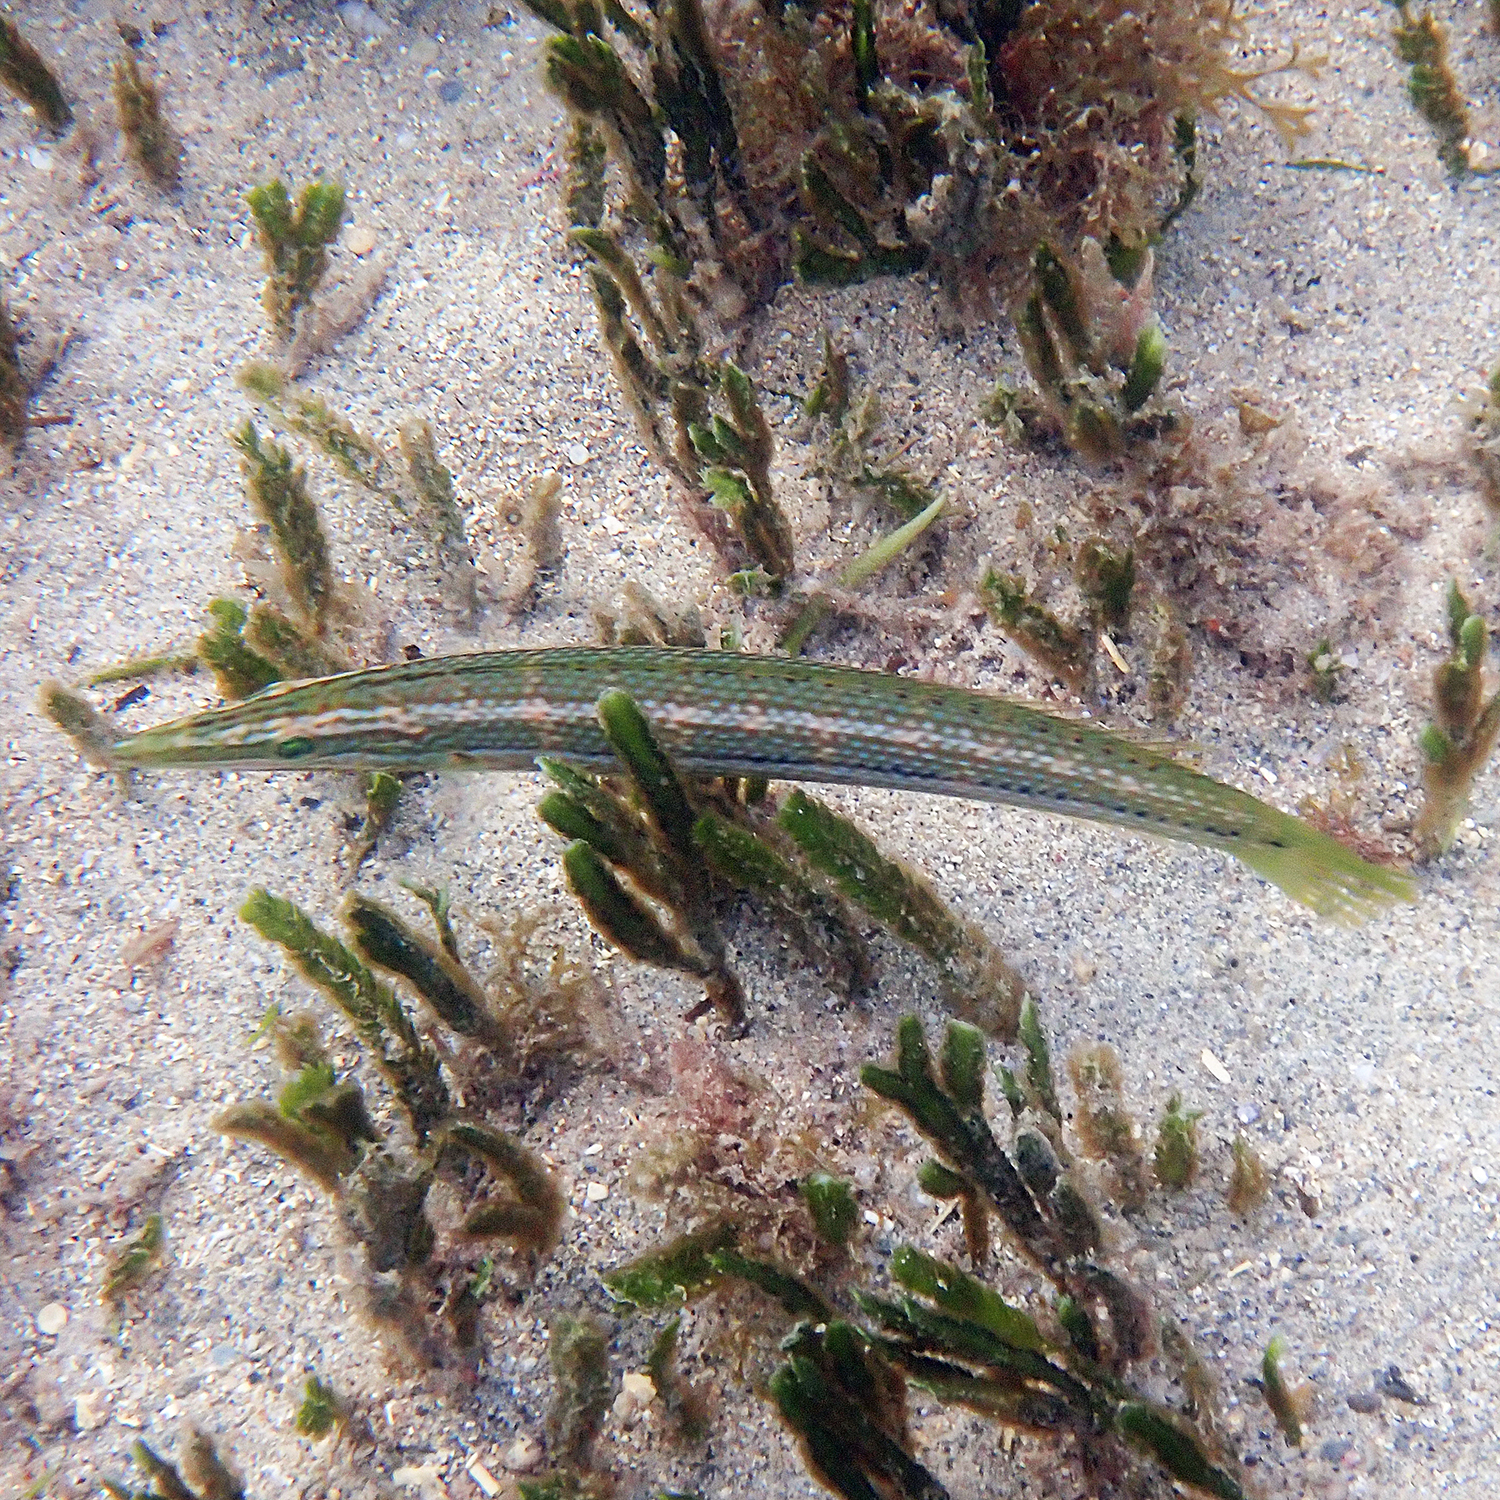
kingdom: Animalia
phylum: Chordata
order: Perciformes
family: Labridae
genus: Cheilio
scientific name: Cheilio inermis
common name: Cigar wrasse
